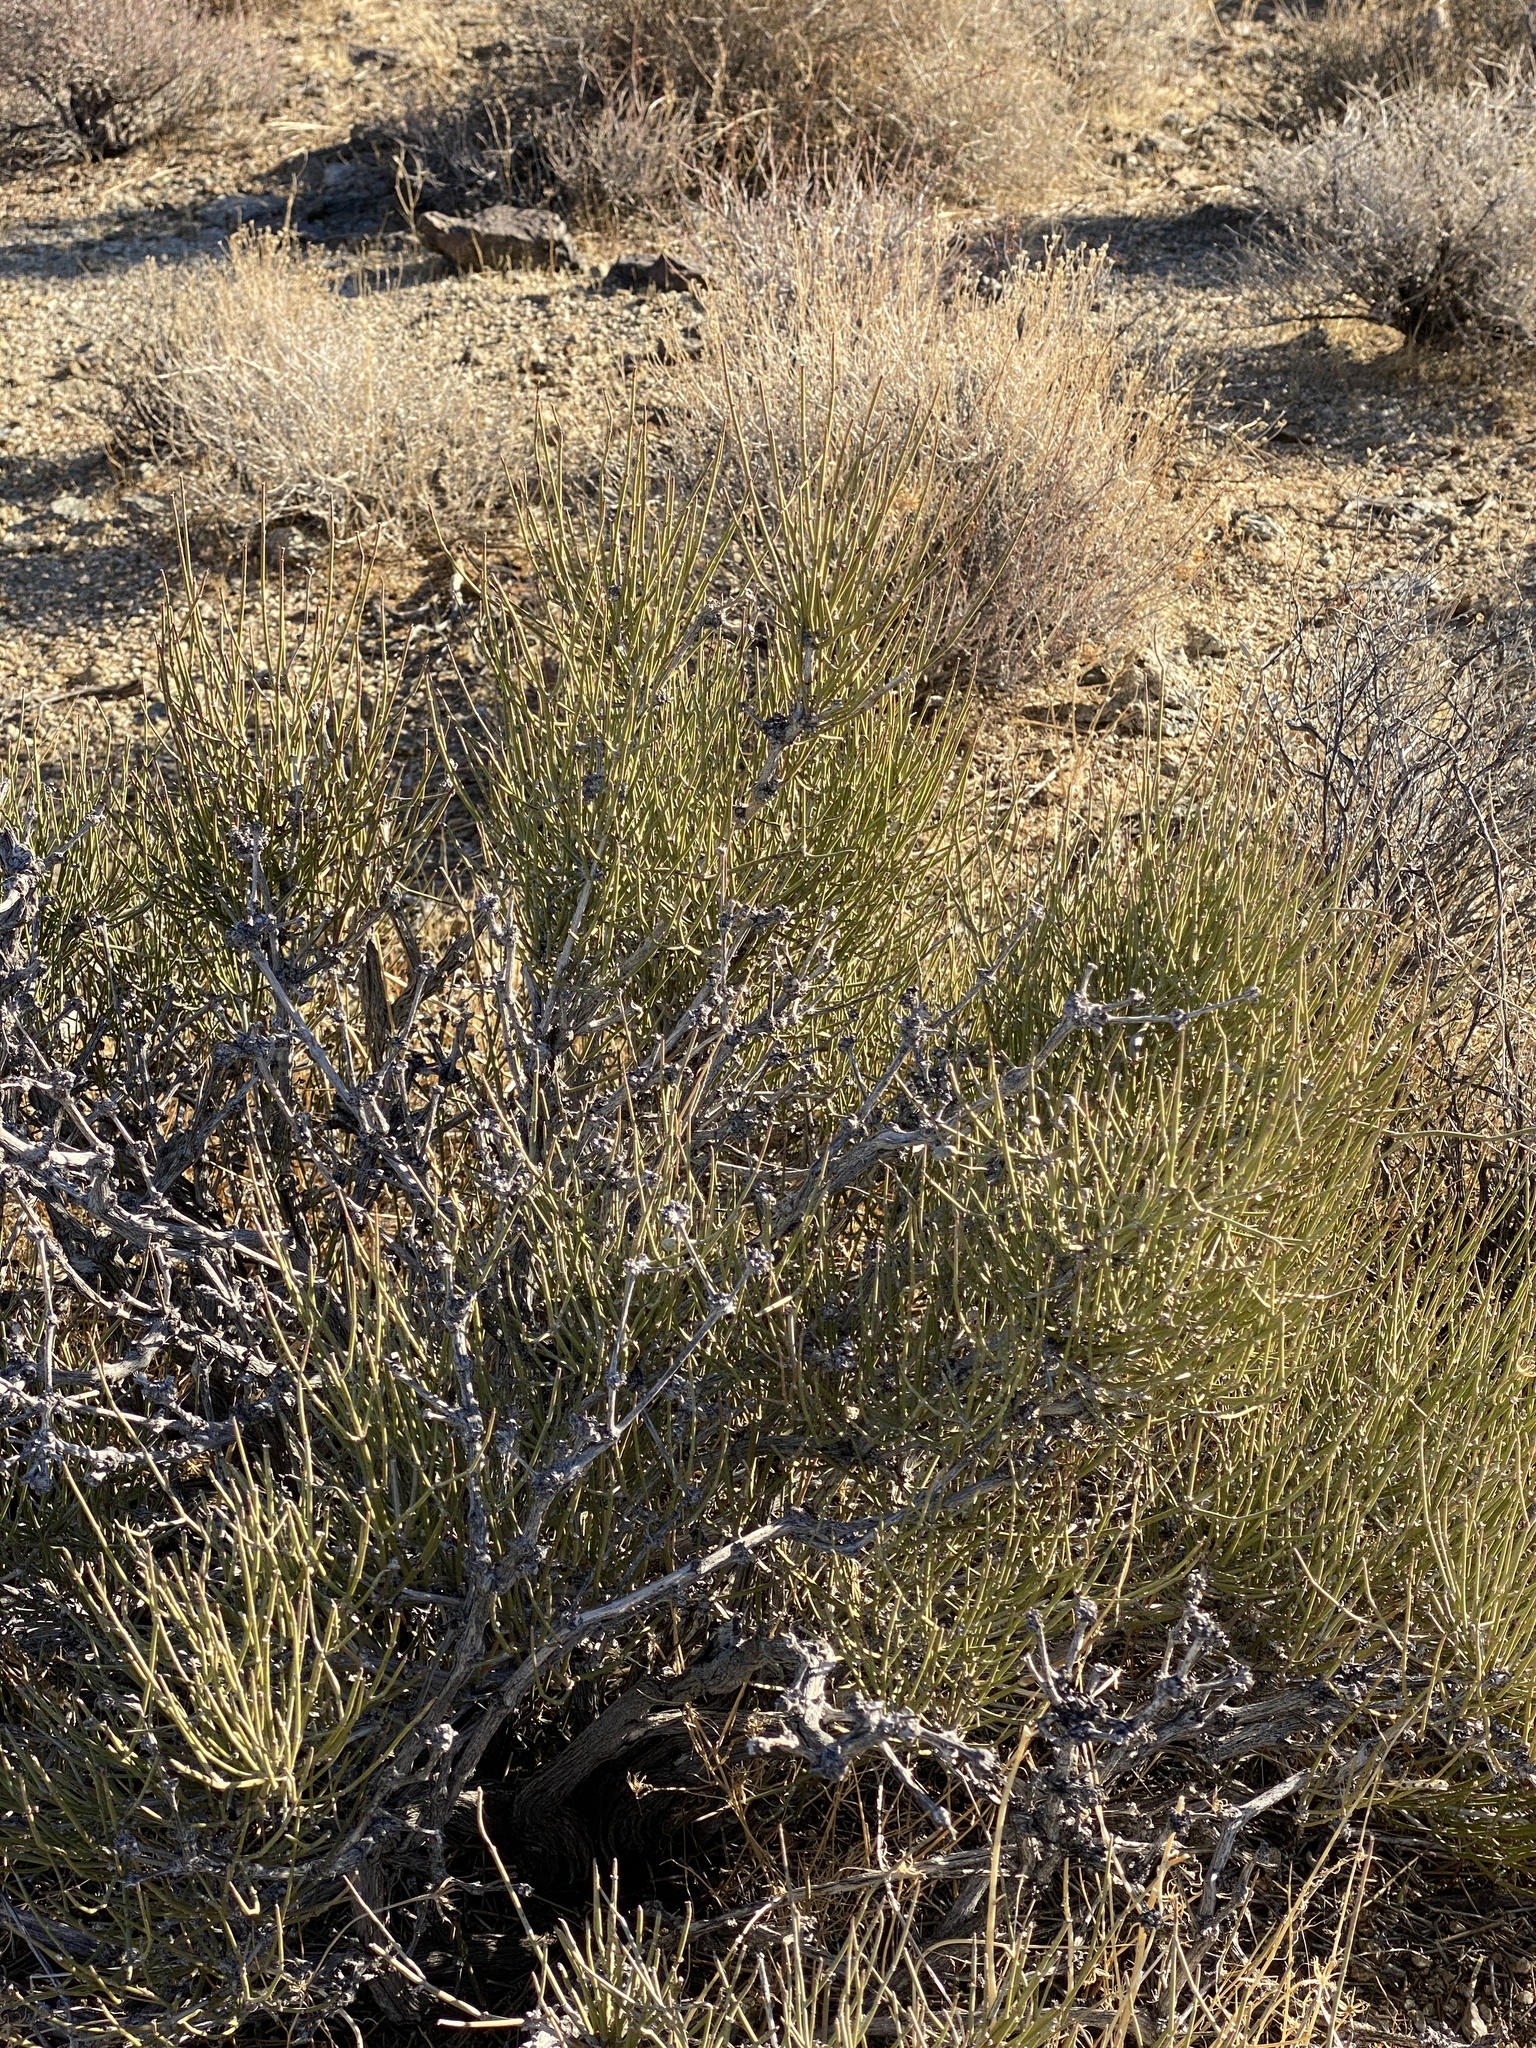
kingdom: Plantae
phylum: Tracheophyta
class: Gnetopsida
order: Ephedrales
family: Ephedraceae
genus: Ephedra
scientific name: Ephedra viridis
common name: Green ephedra
